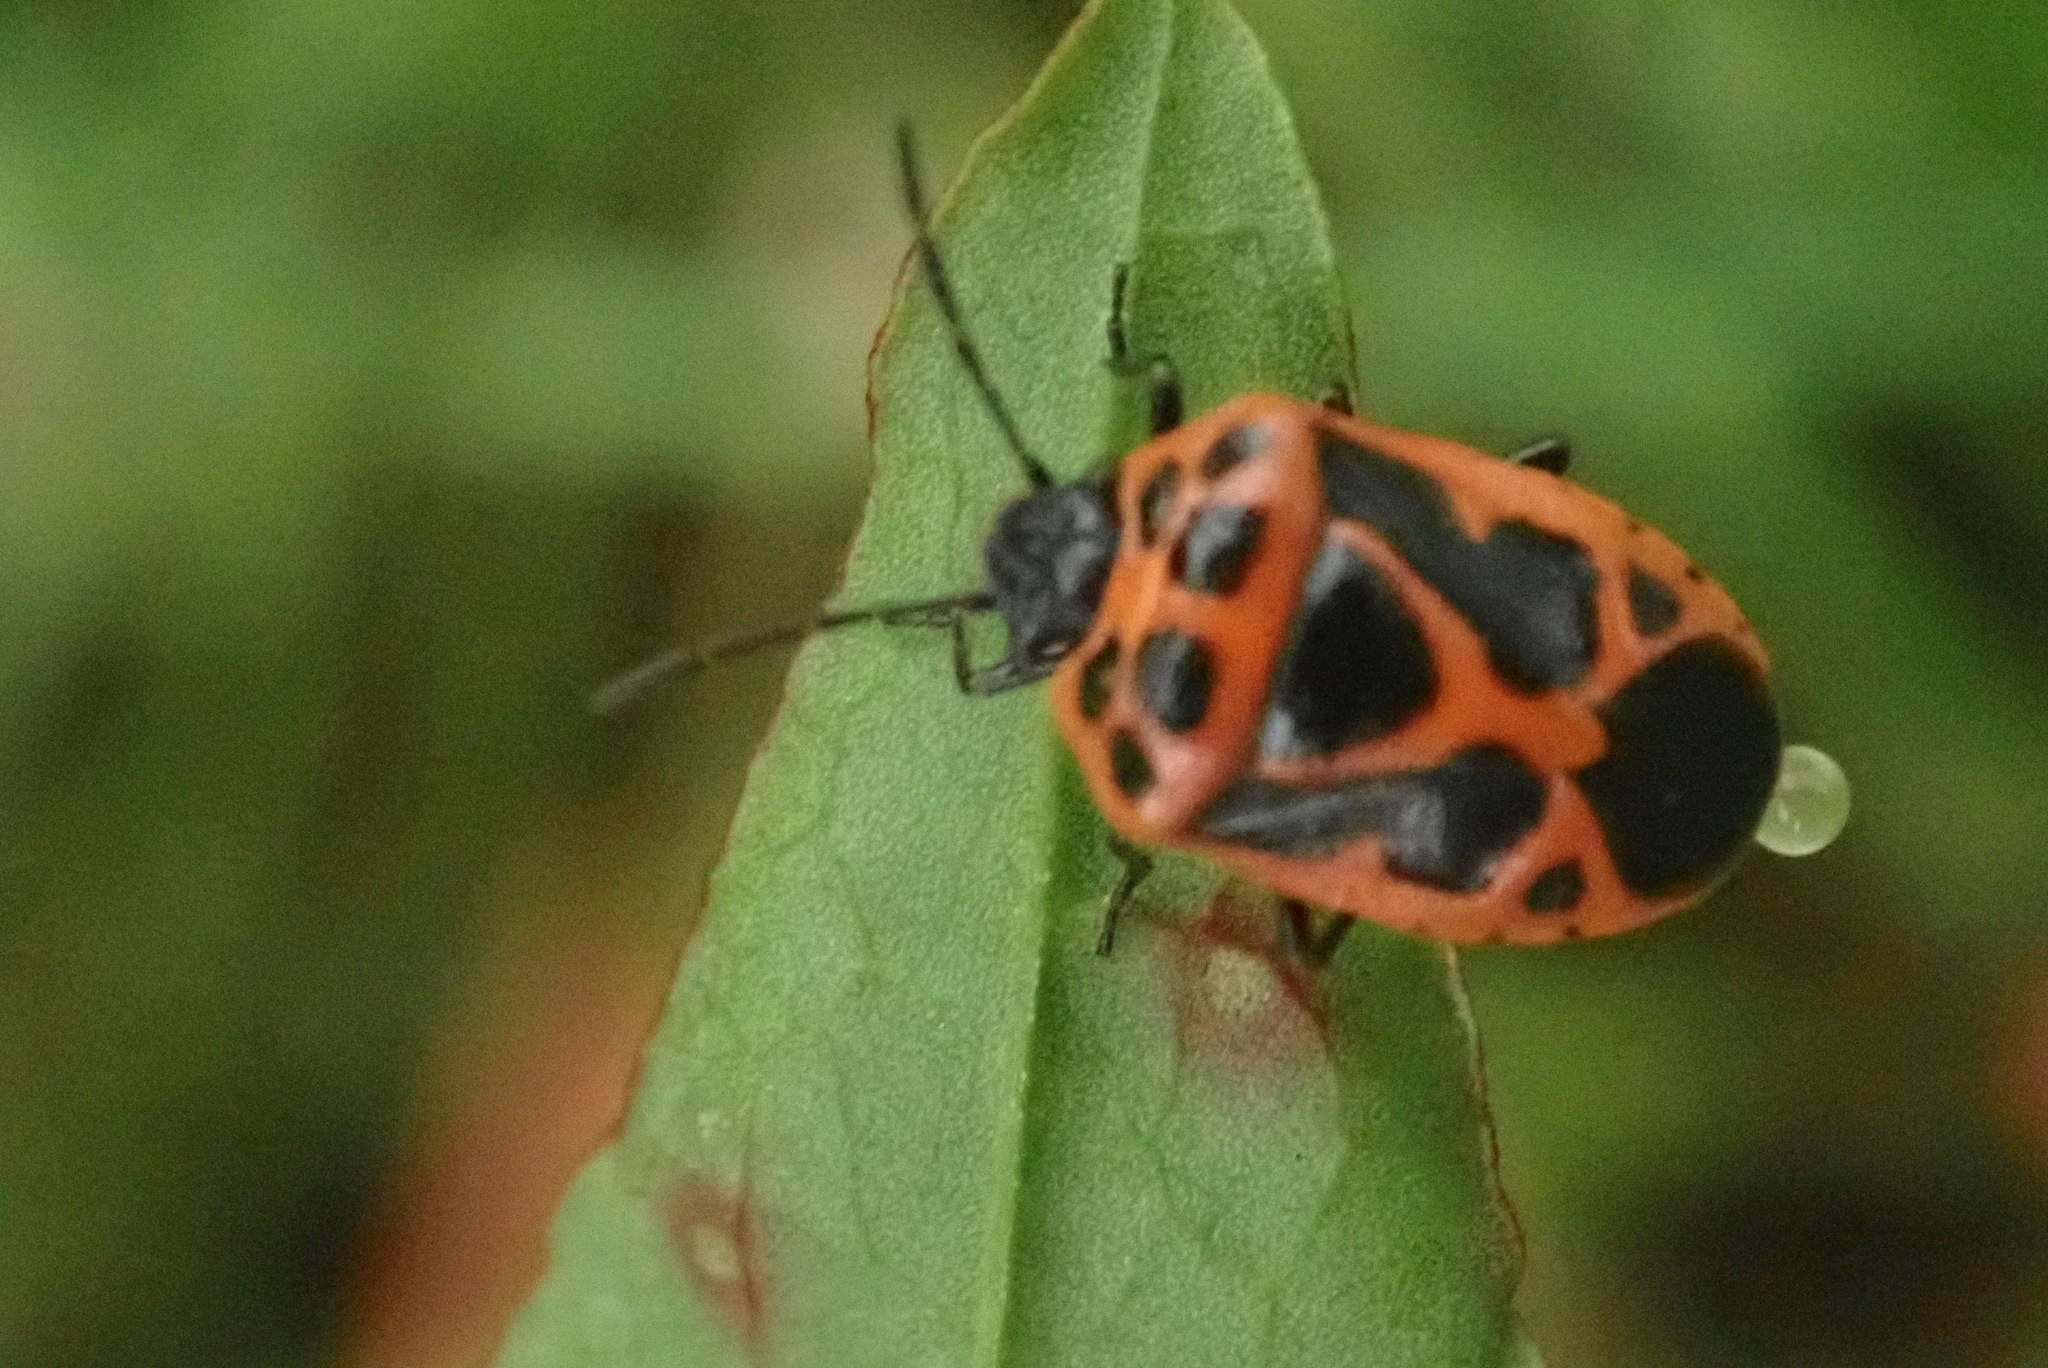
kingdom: Animalia
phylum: Arthropoda
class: Insecta
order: Hemiptera
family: Pentatomidae
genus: Eurydema
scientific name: Eurydema dominulus
